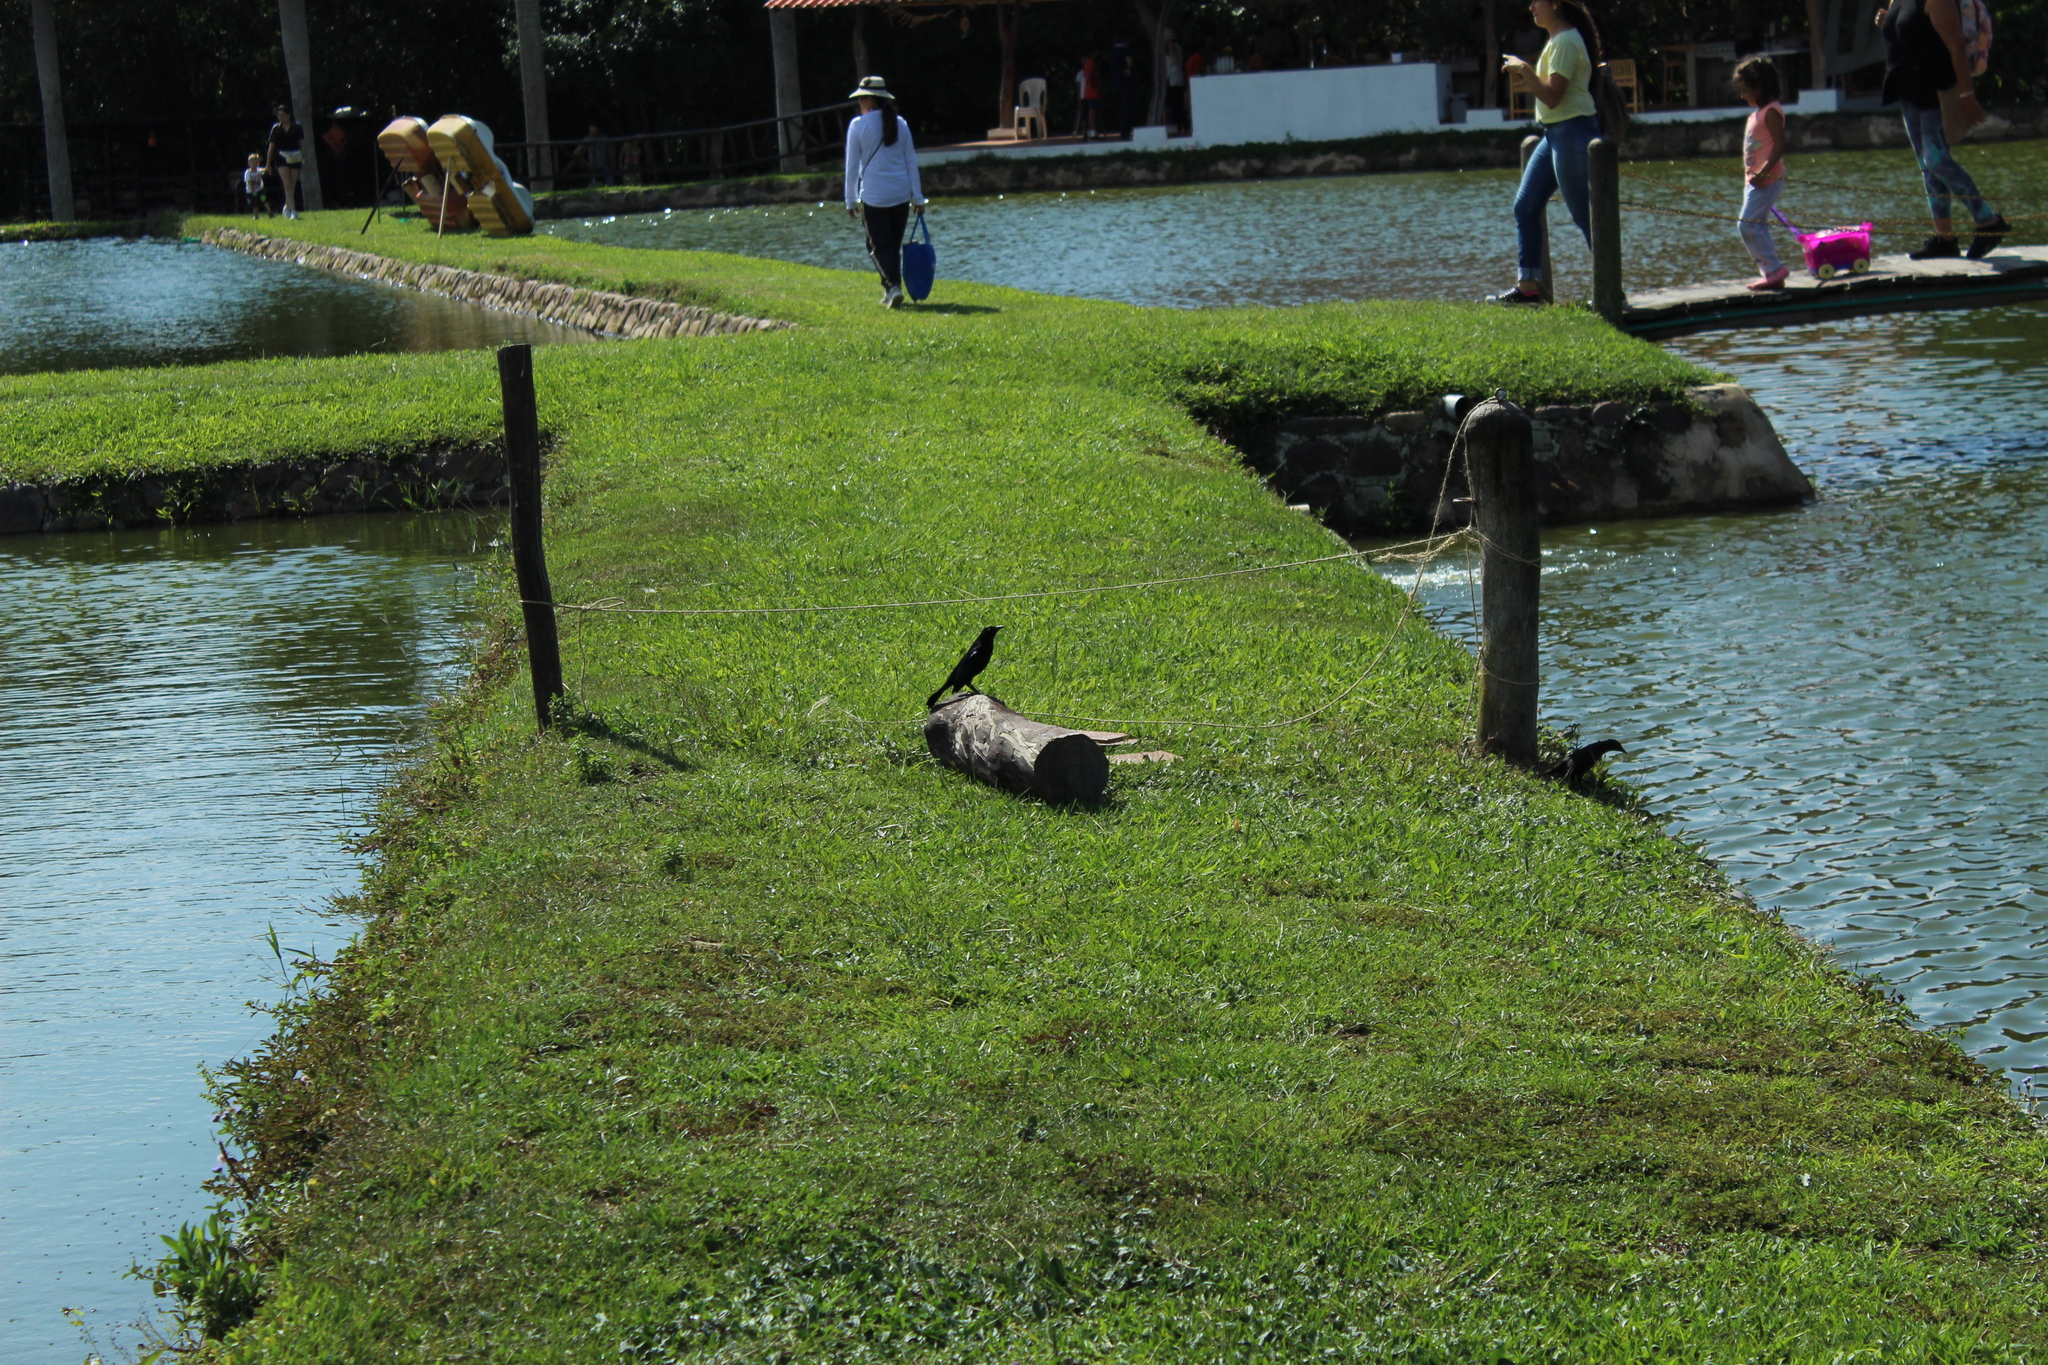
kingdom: Animalia
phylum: Chordata
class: Aves
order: Passeriformes
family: Icteridae
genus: Quiscalus
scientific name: Quiscalus lugubris
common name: Carib grackle
